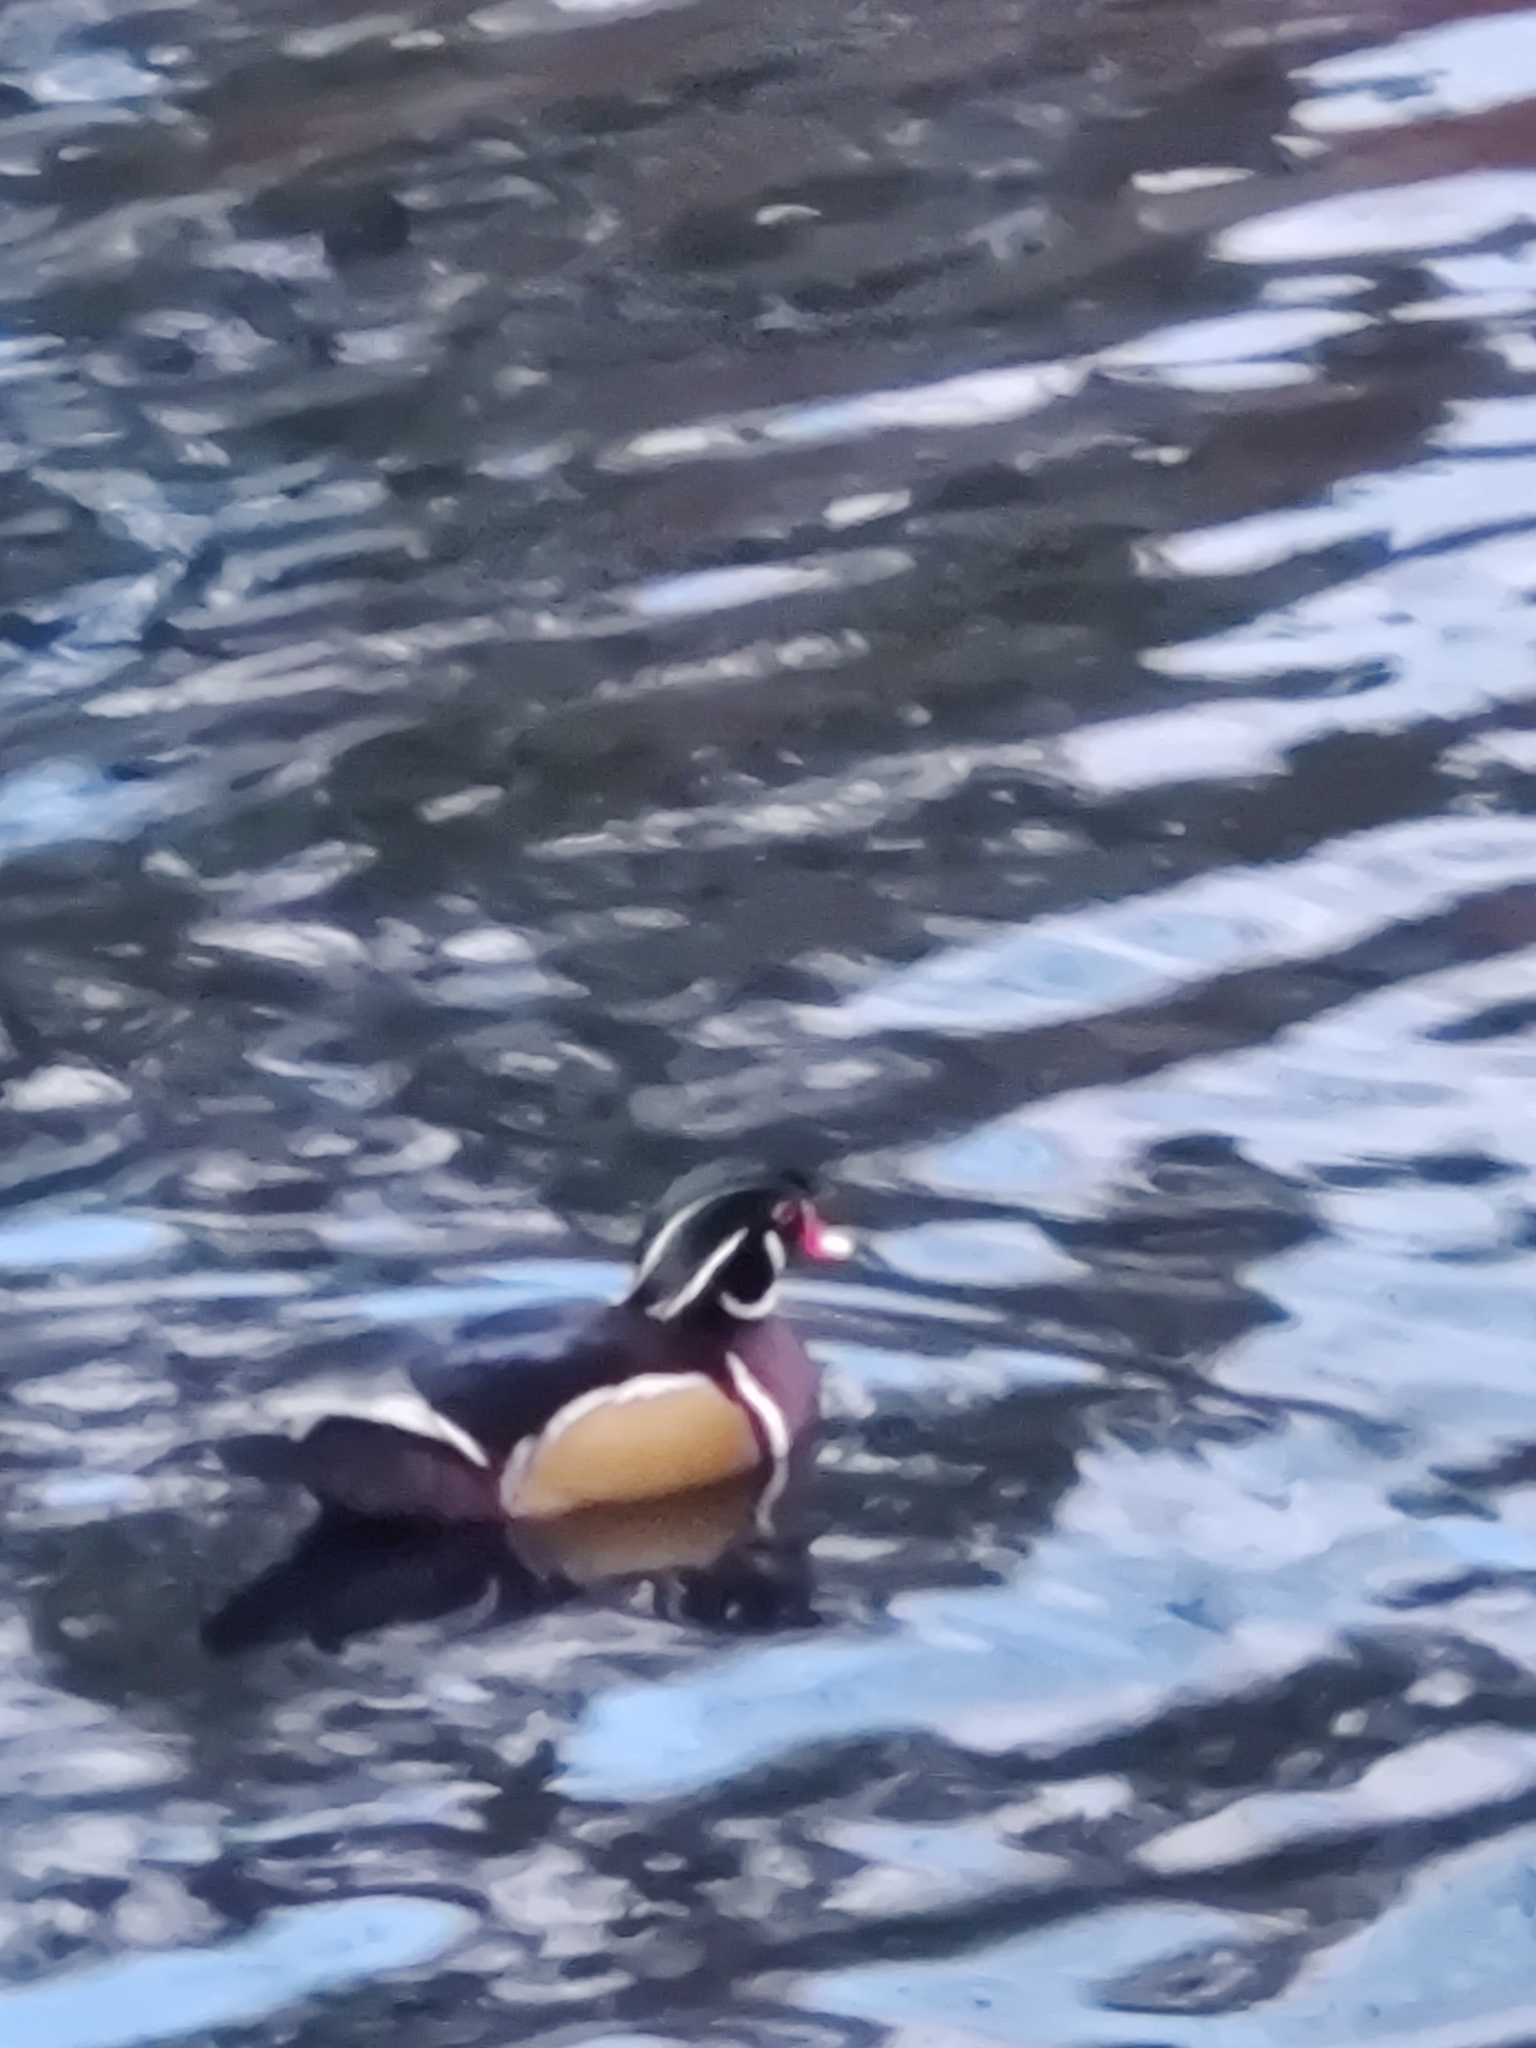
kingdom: Animalia
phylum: Chordata
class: Aves
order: Anseriformes
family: Anatidae
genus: Aix
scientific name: Aix sponsa
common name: Wood duck
